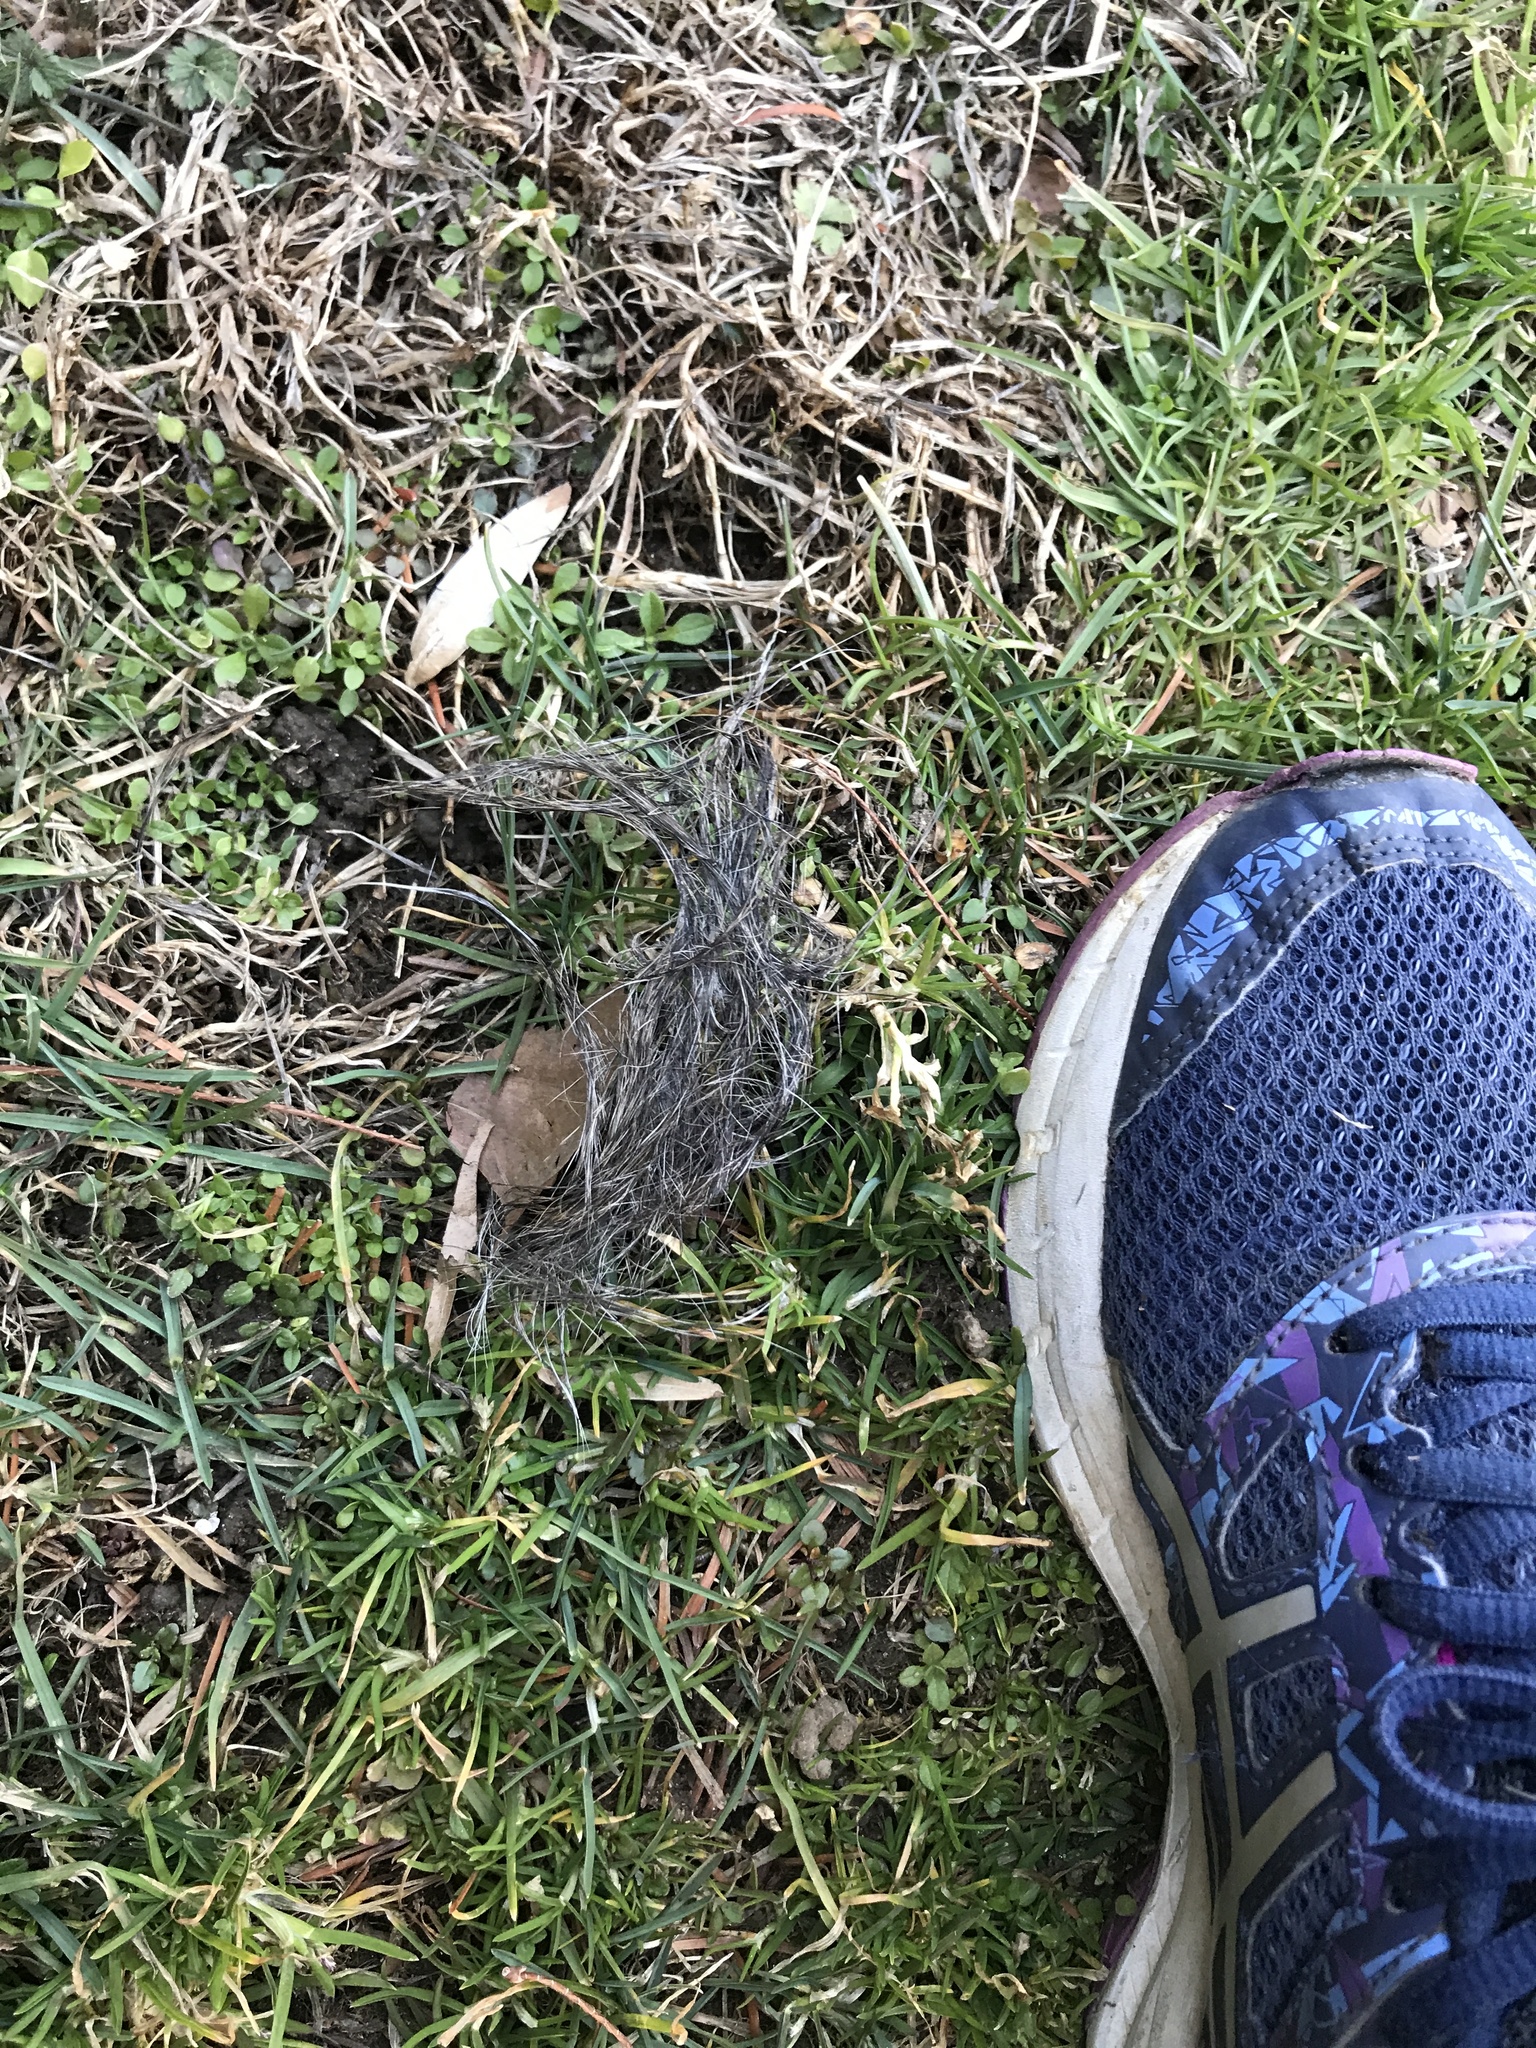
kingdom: Animalia
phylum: Chordata
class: Mammalia
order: Rodentia
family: Sciuridae
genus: Sciurus
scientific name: Sciurus carolinensis
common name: Eastern gray squirrel
